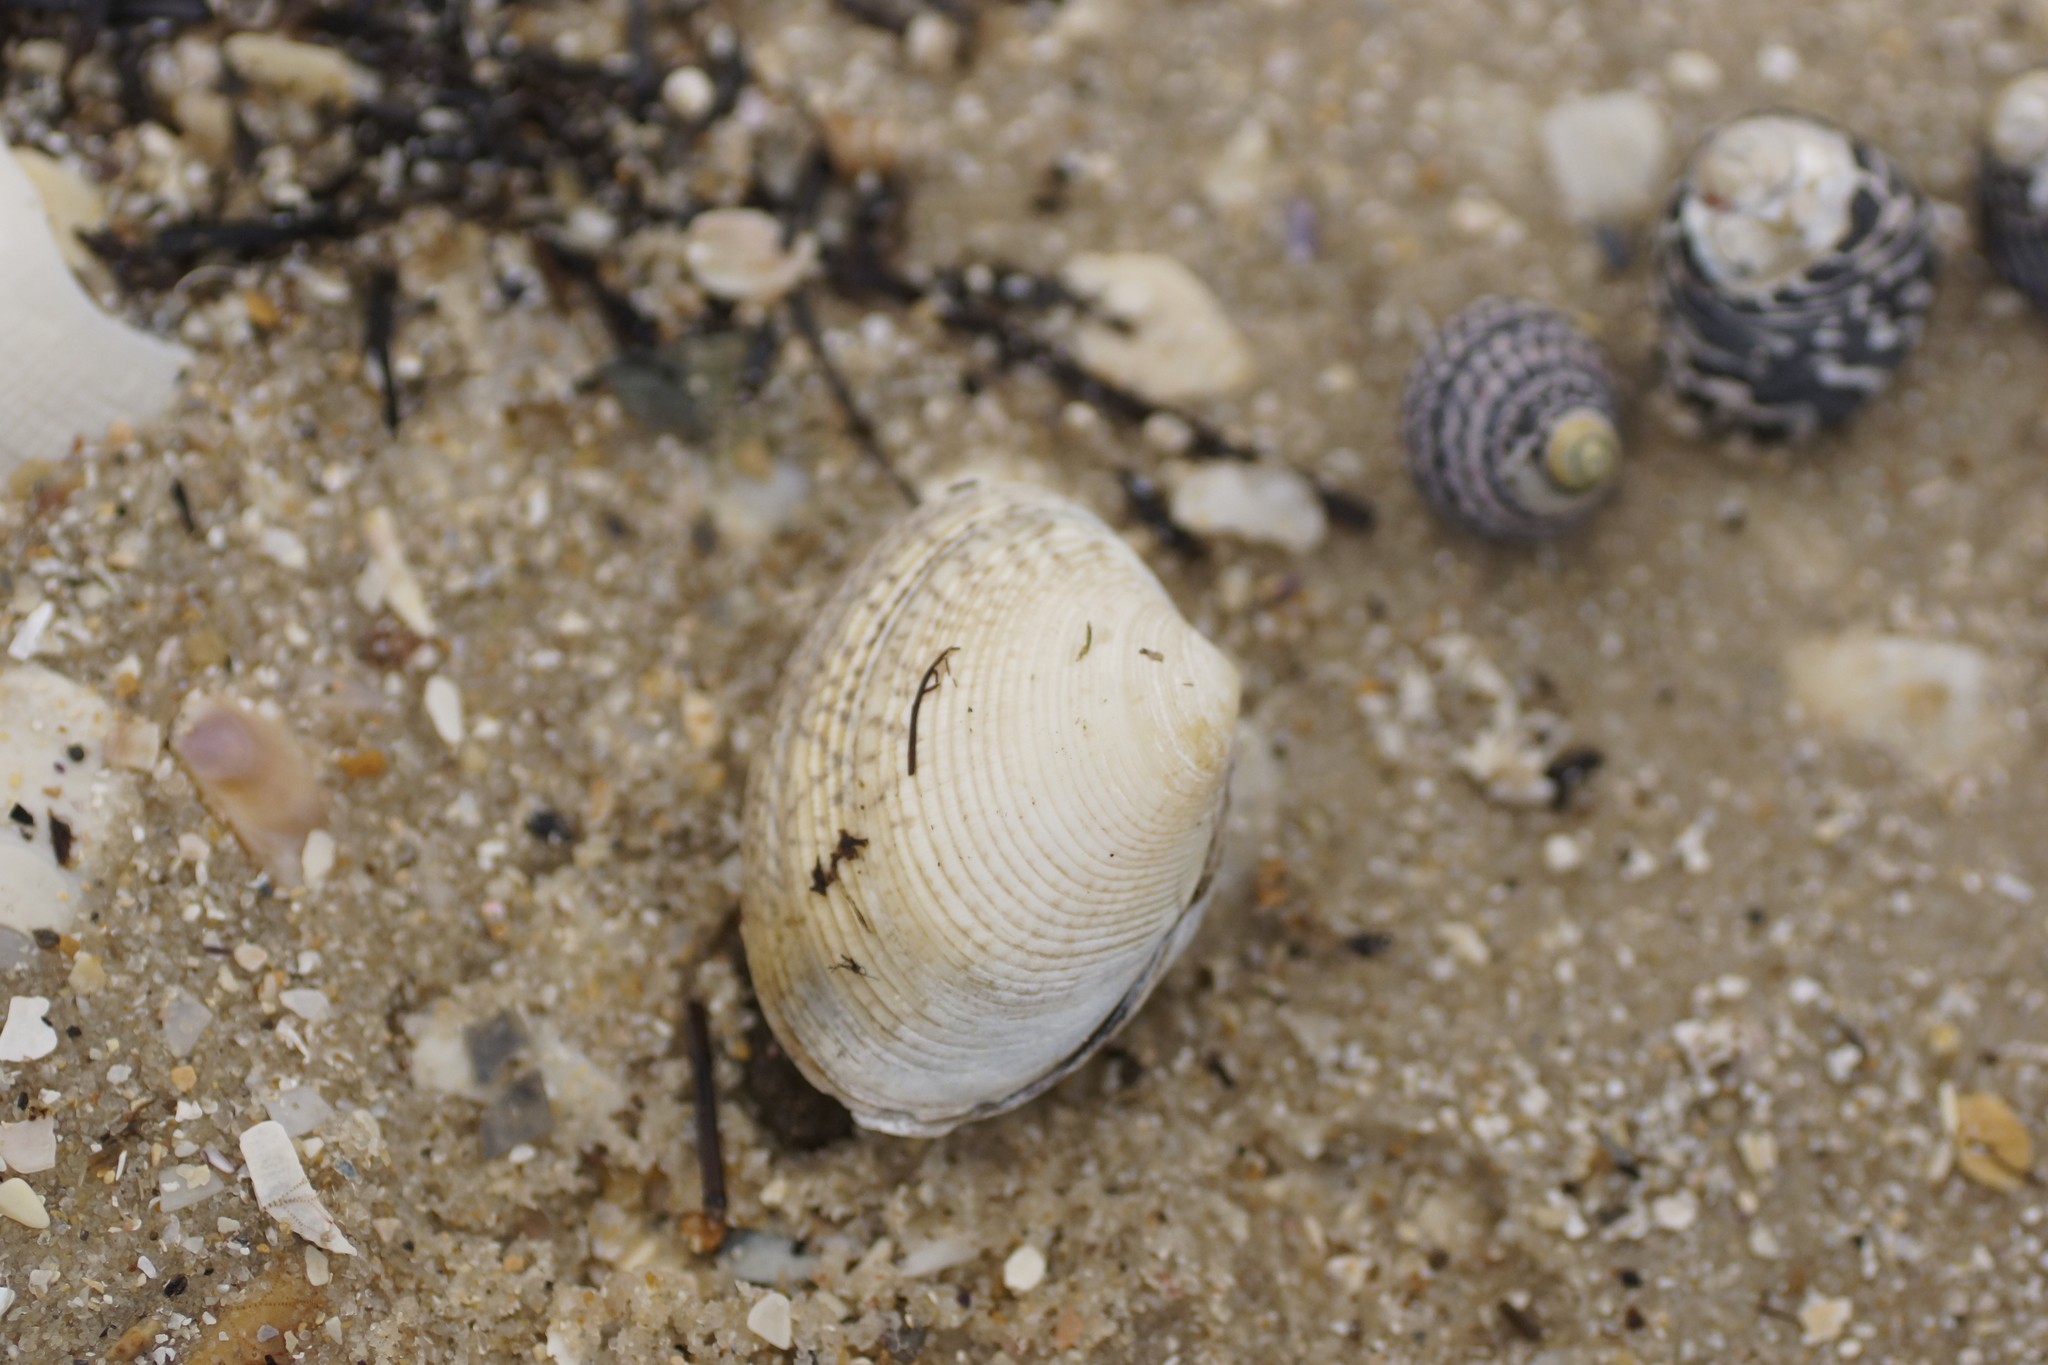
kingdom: Animalia
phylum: Mollusca
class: Bivalvia
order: Venerida
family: Veneridae
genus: Katelysia
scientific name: Katelysia rhytiphora
